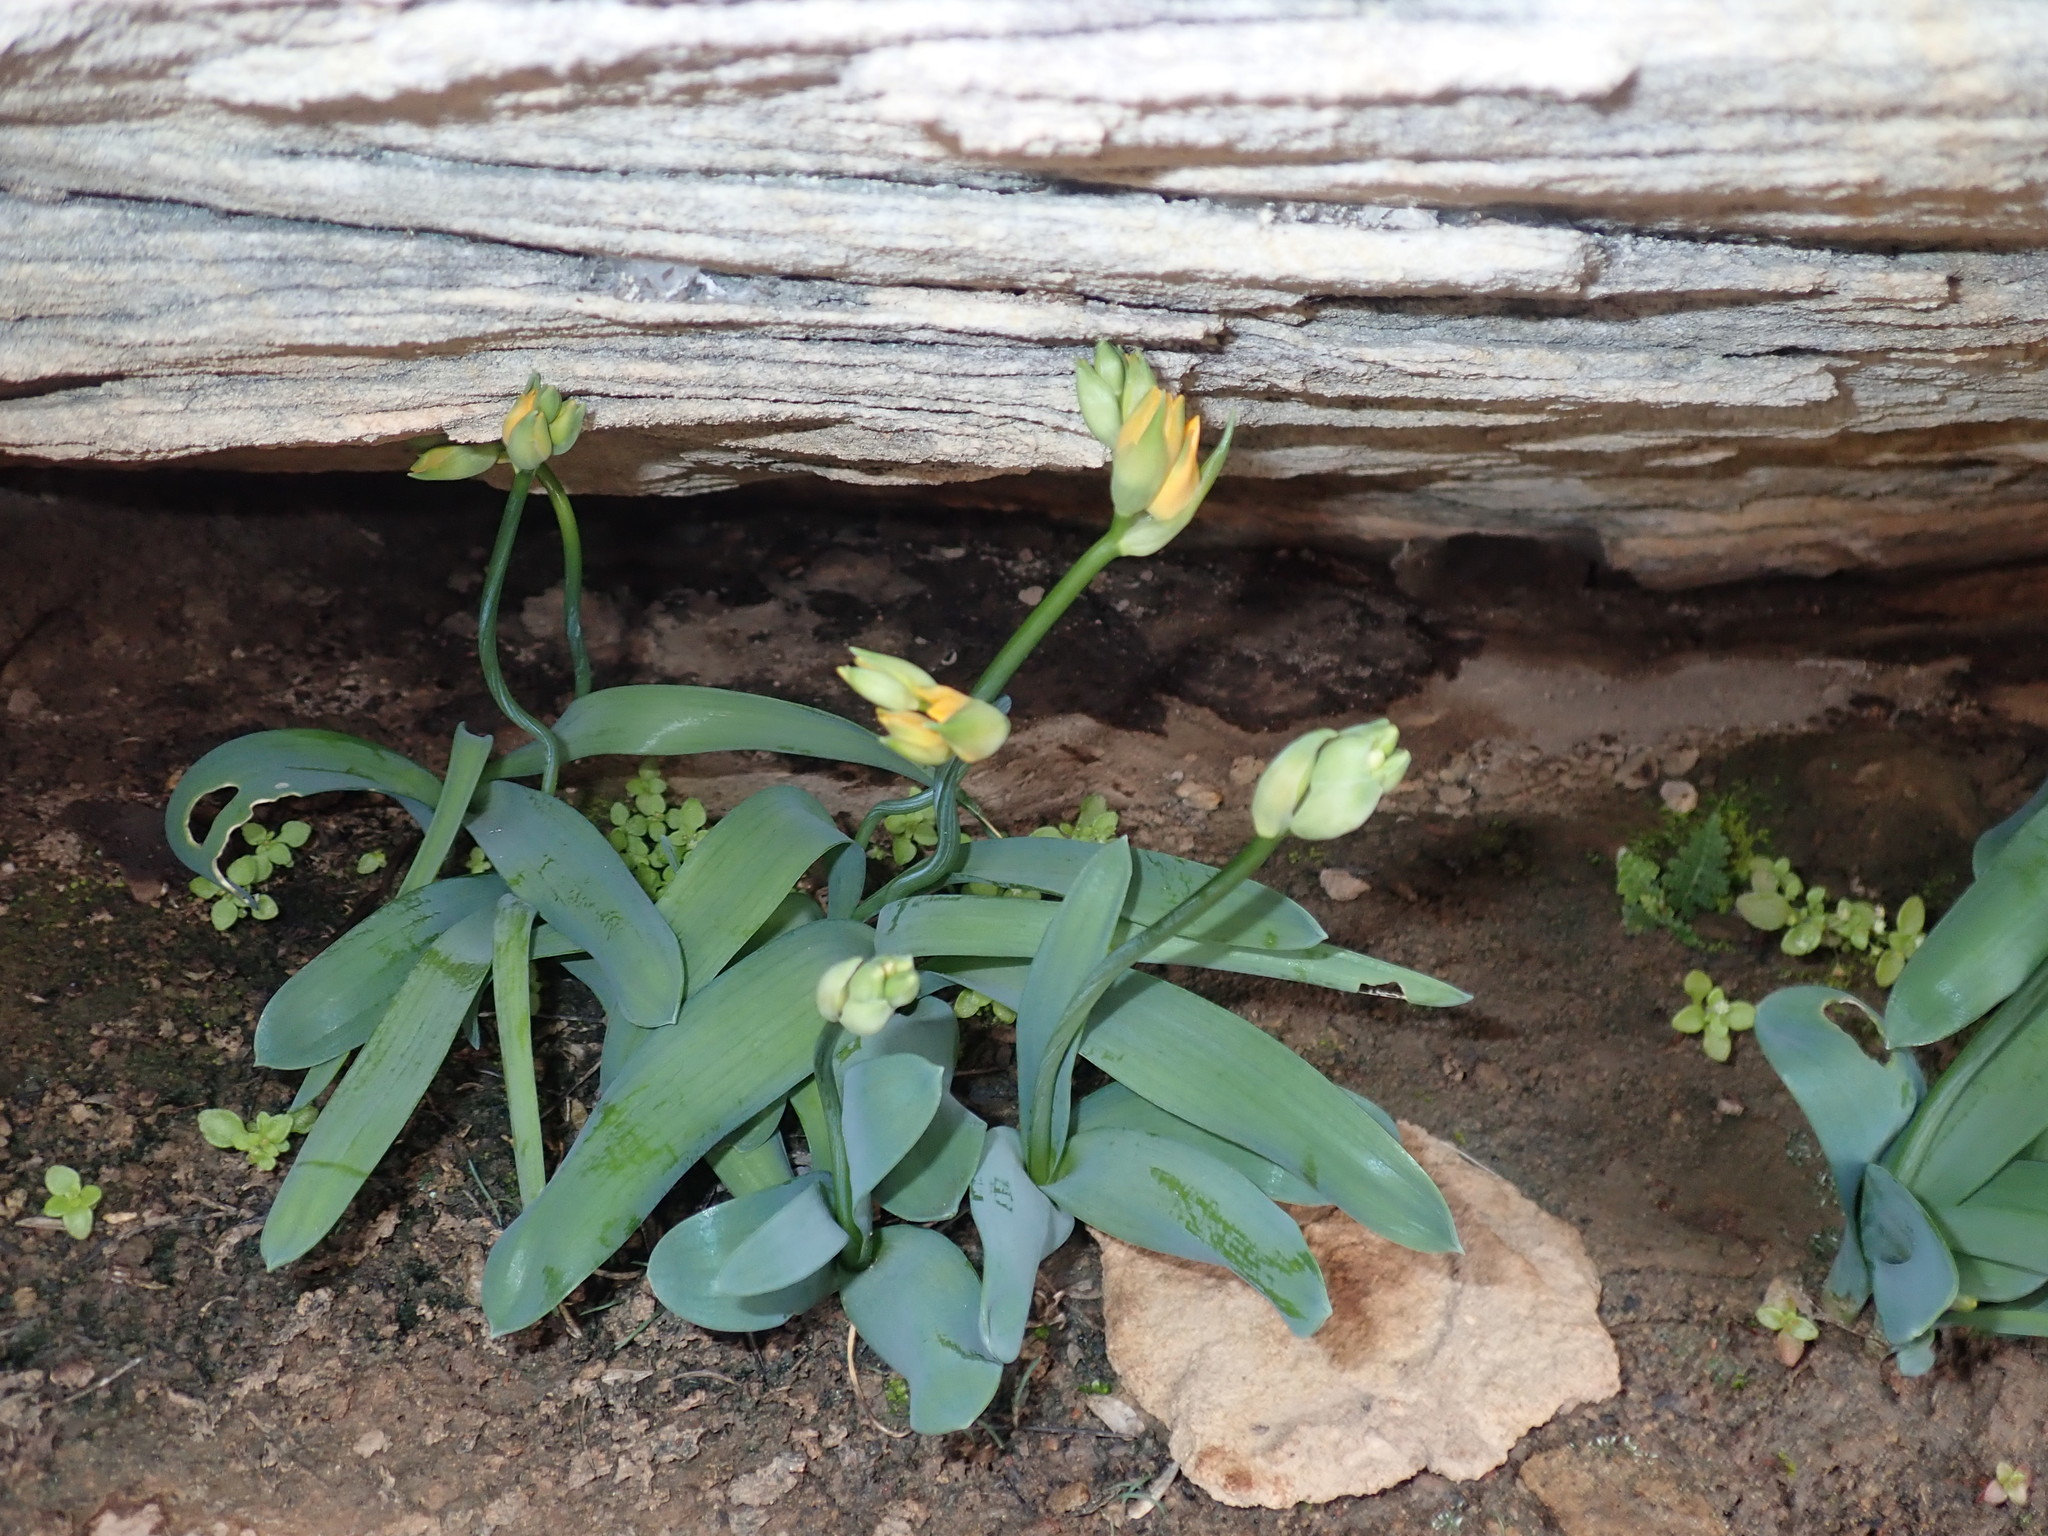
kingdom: Plantae
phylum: Tracheophyta
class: Liliopsida
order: Asparagales
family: Asparagaceae
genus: Ornithogalum
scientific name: Ornithogalum dubium
